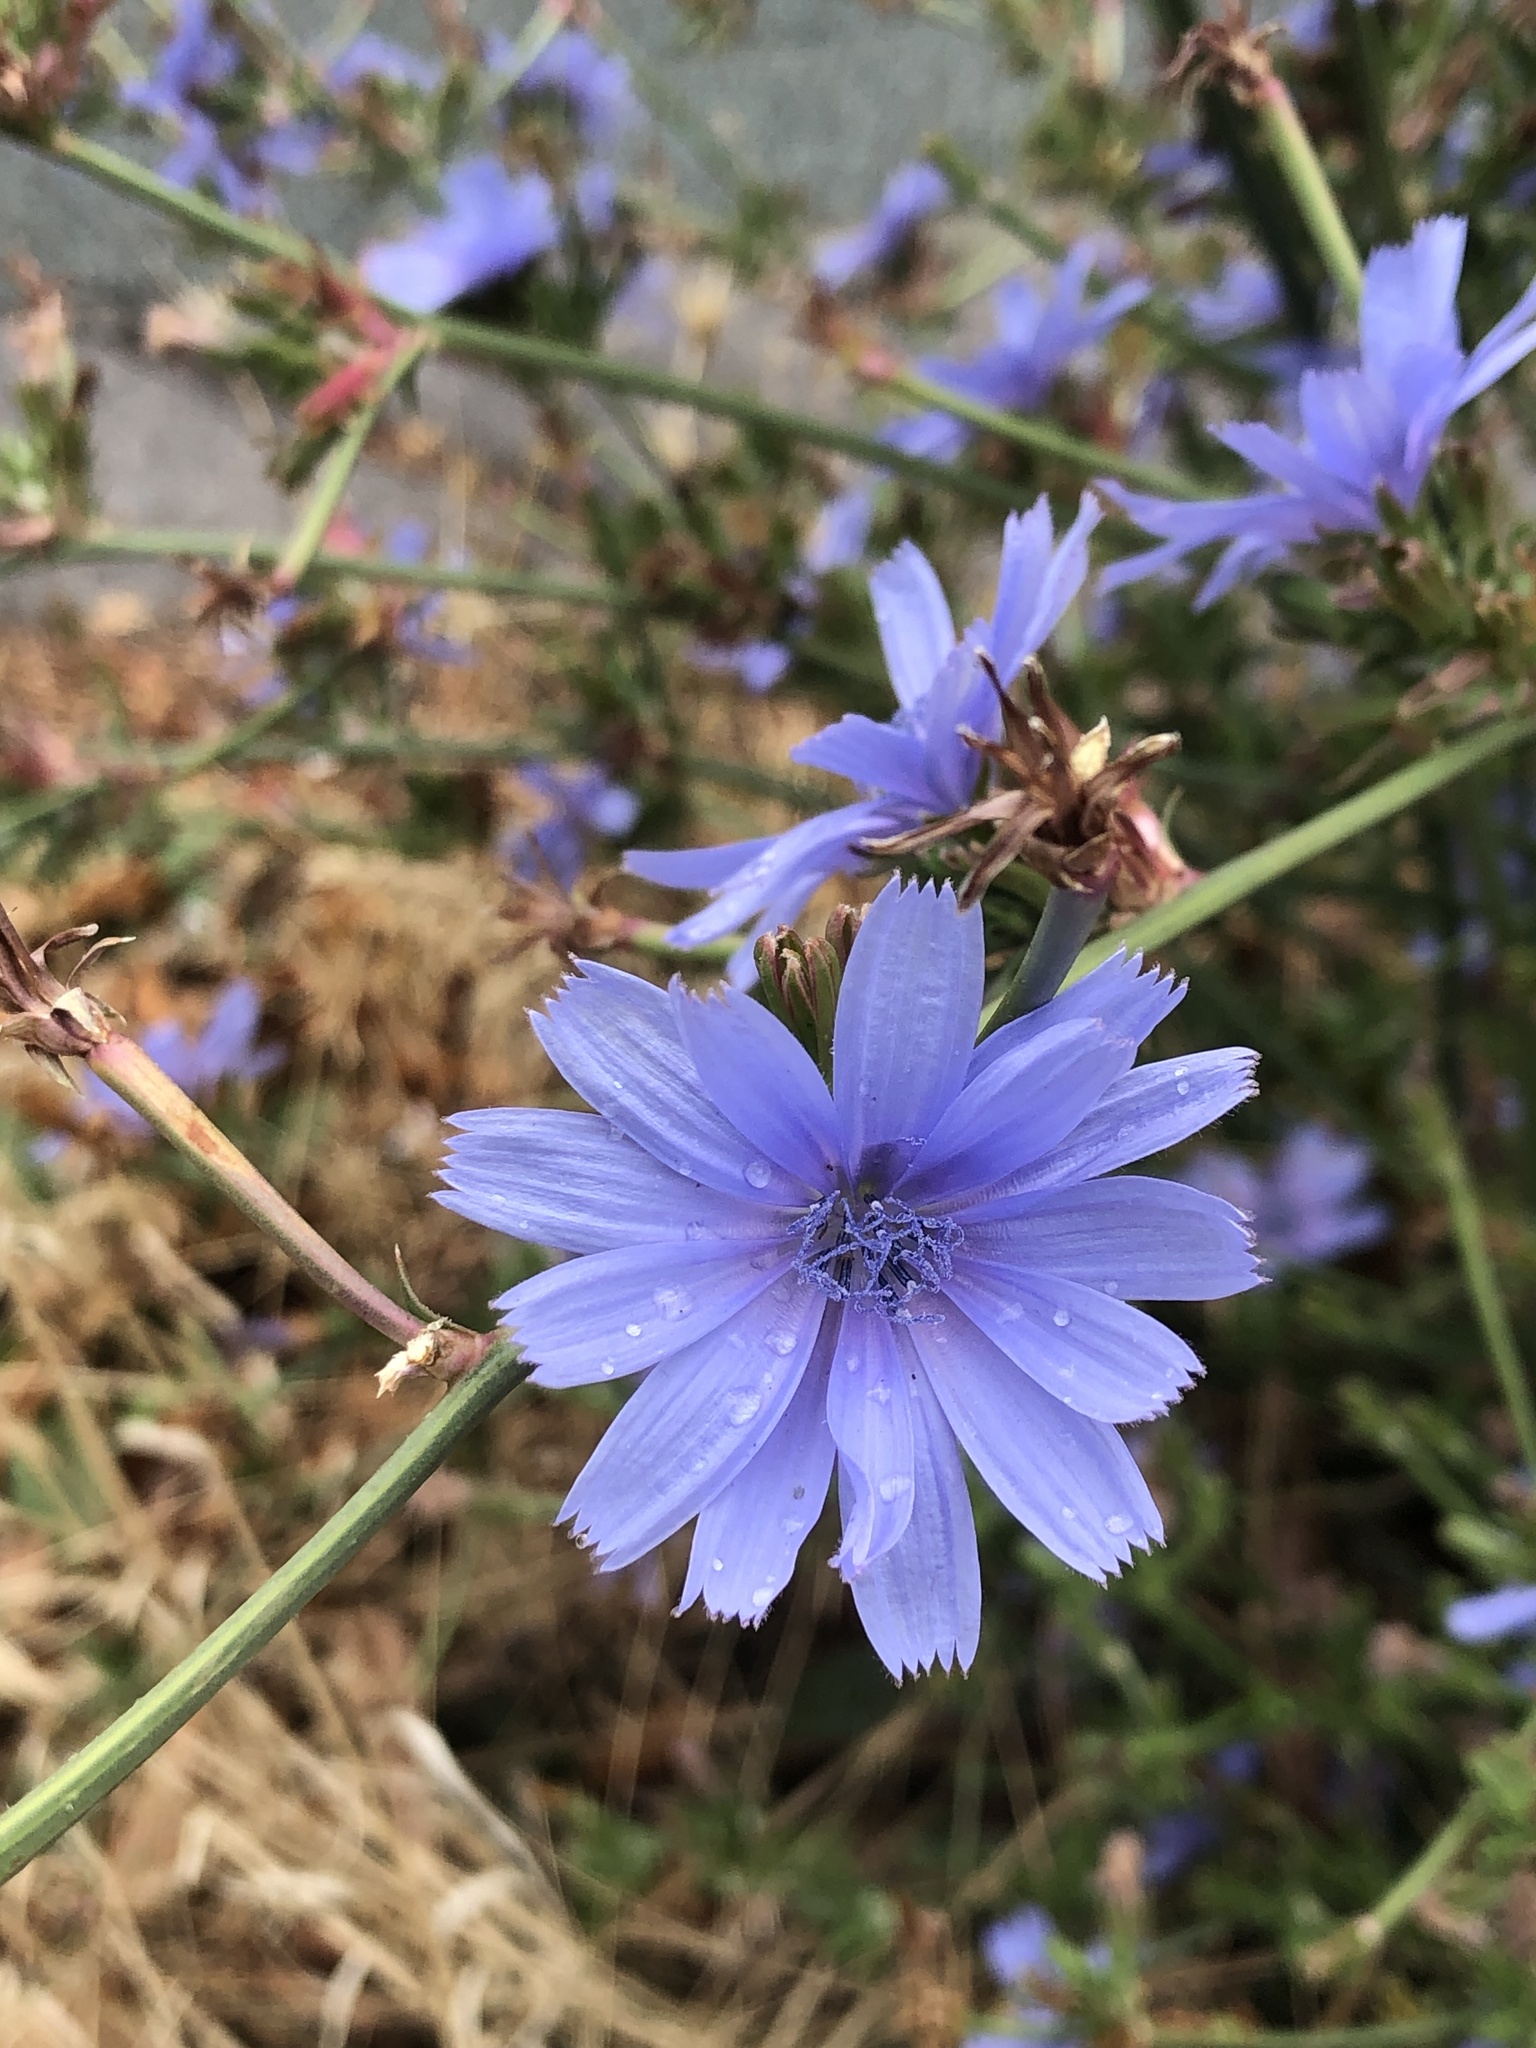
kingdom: Plantae
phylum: Tracheophyta
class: Magnoliopsida
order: Asterales
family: Asteraceae
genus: Cichorium
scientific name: Cichorium intybus
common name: Chicory
